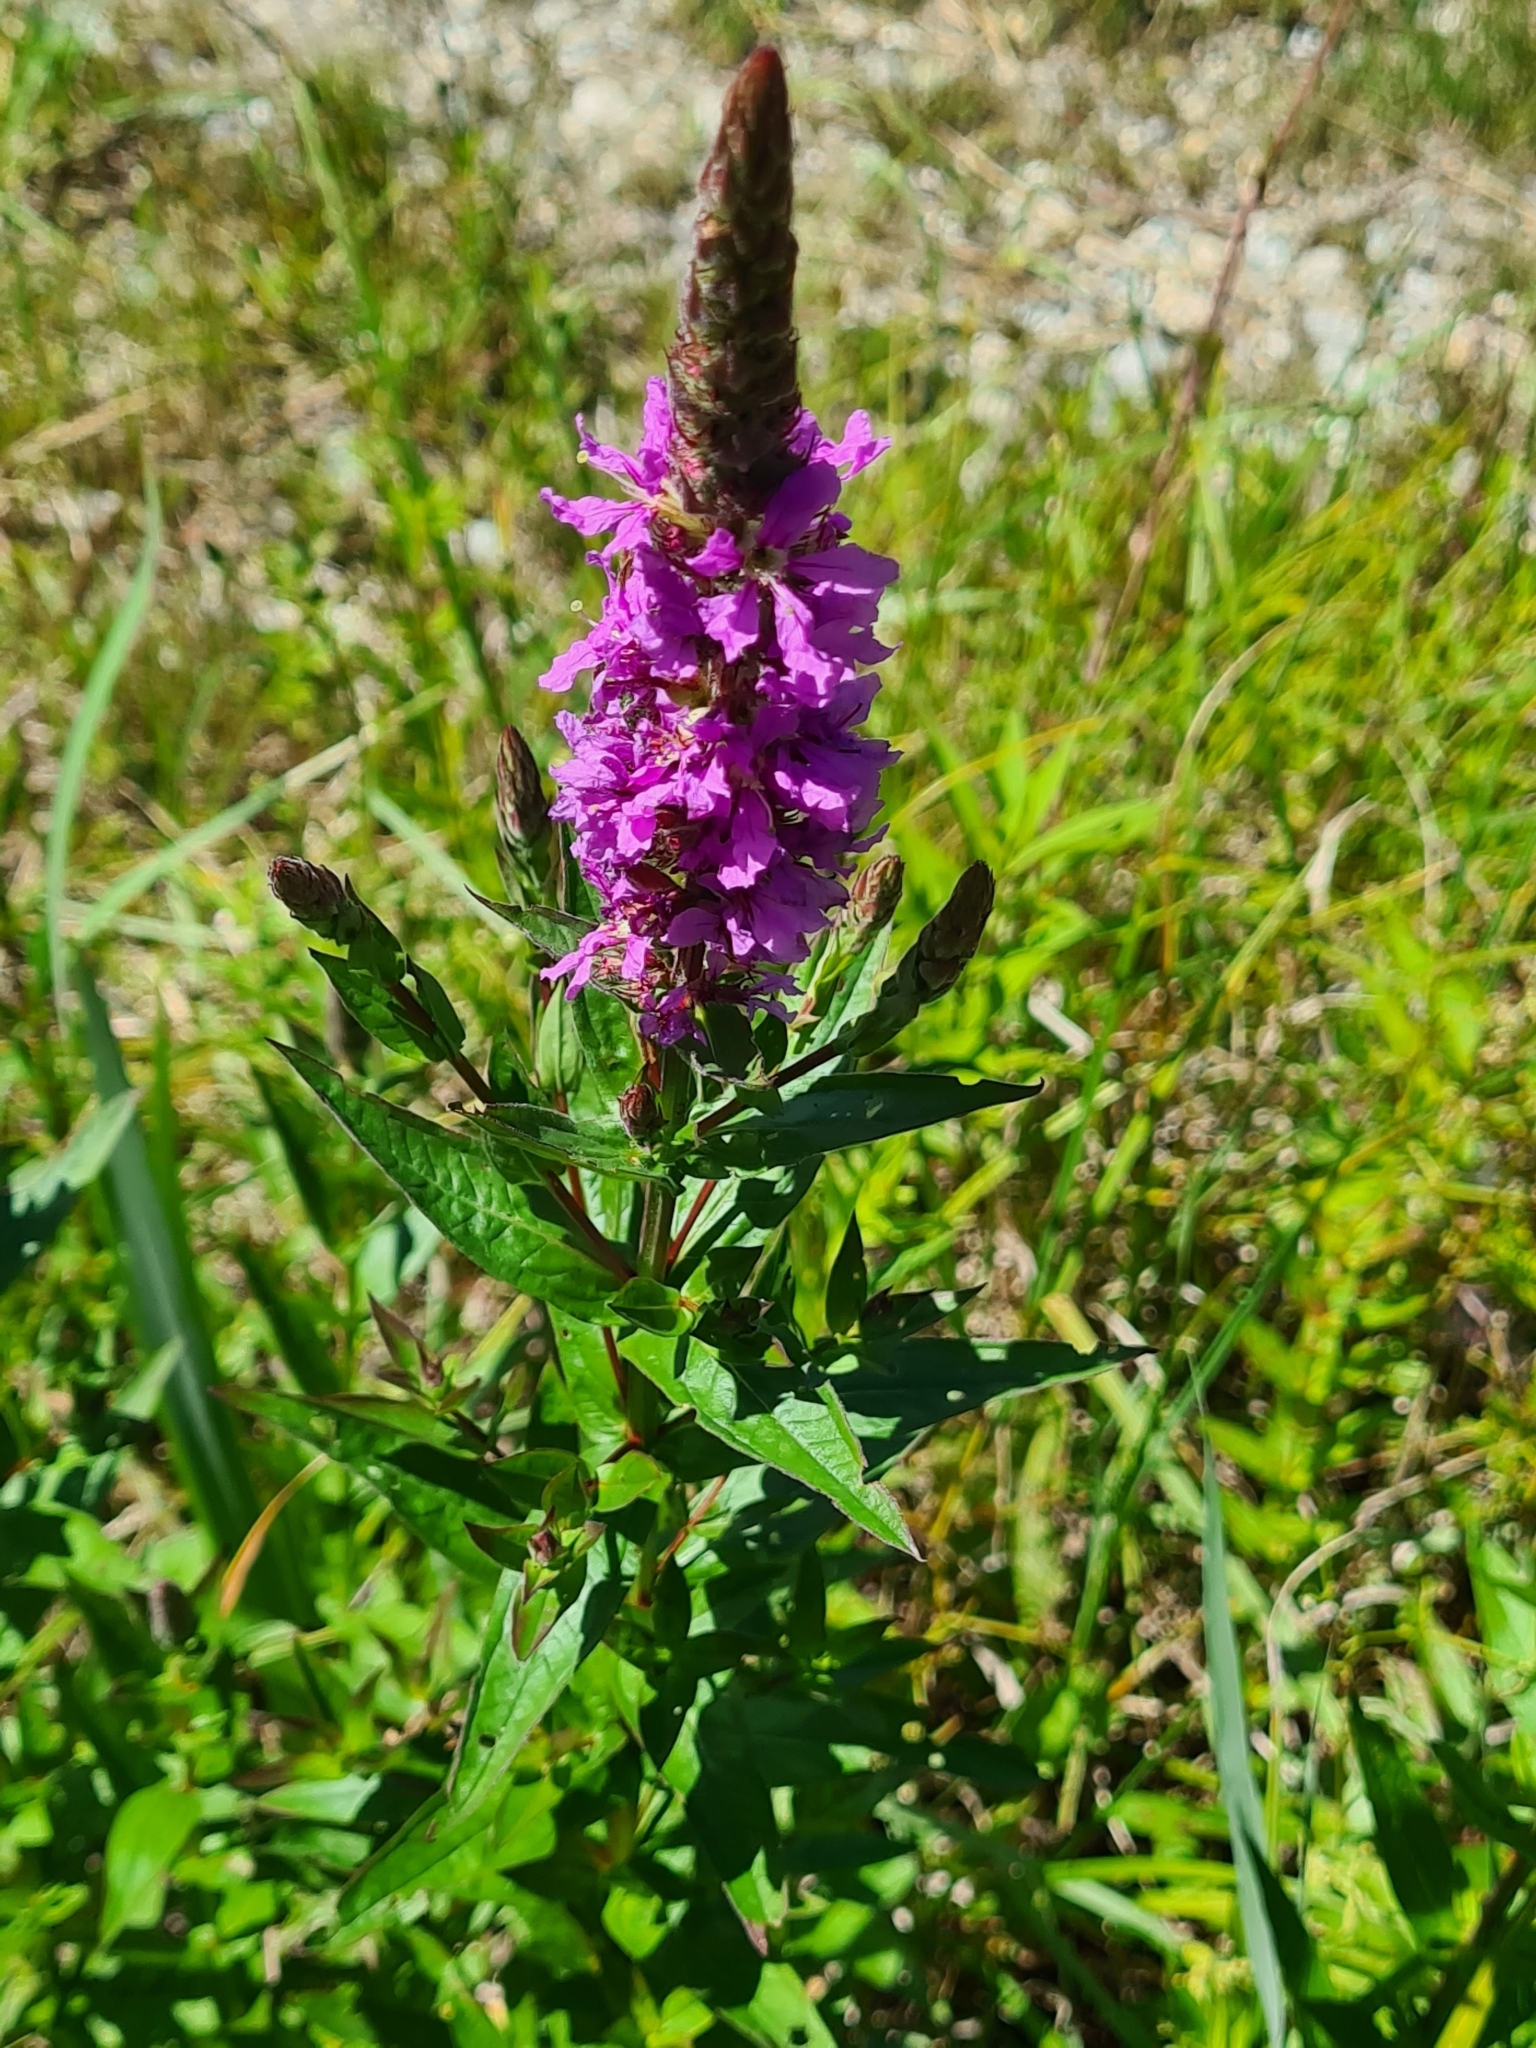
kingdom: Plantae
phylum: Tracheophyta
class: Magnoliopsida
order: Myrtales
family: Lythraceae
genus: Lythrum
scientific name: Lythrum salicaria
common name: Purple loosestrife
